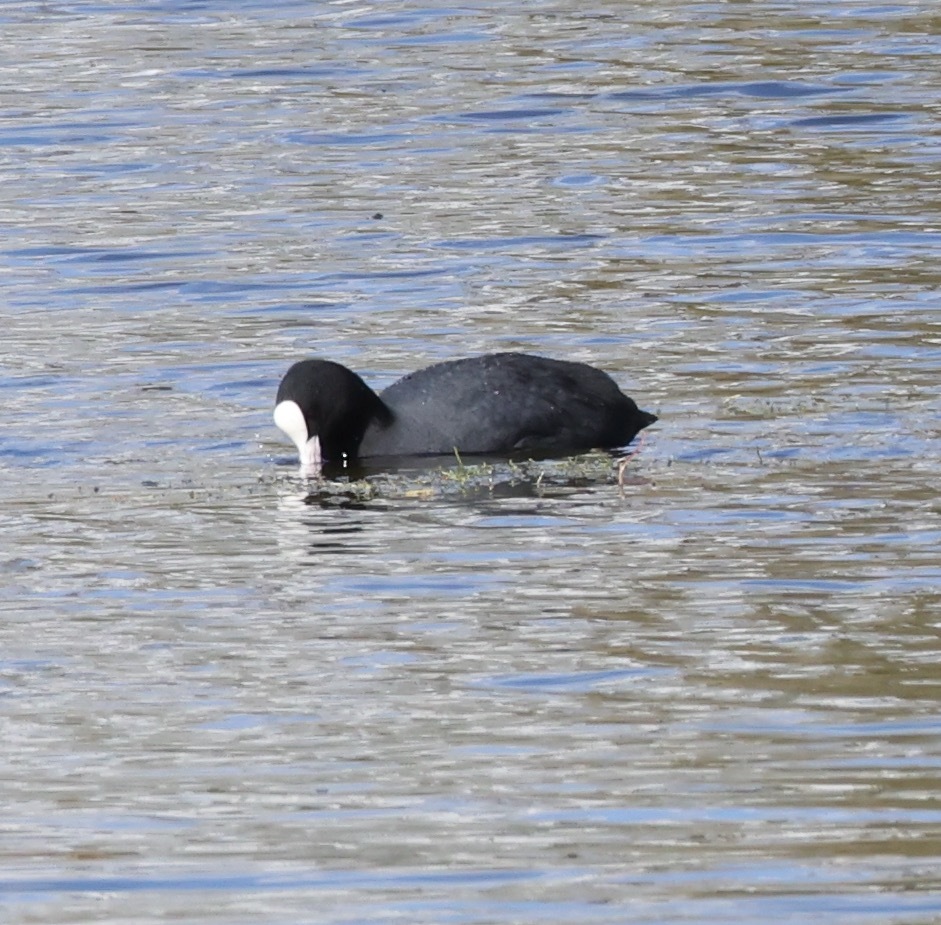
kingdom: Animalia
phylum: Chordata
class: Aves
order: Gruiformes
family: Rallidae
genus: Fulica
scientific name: Fulica atra
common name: Eurasian coot
